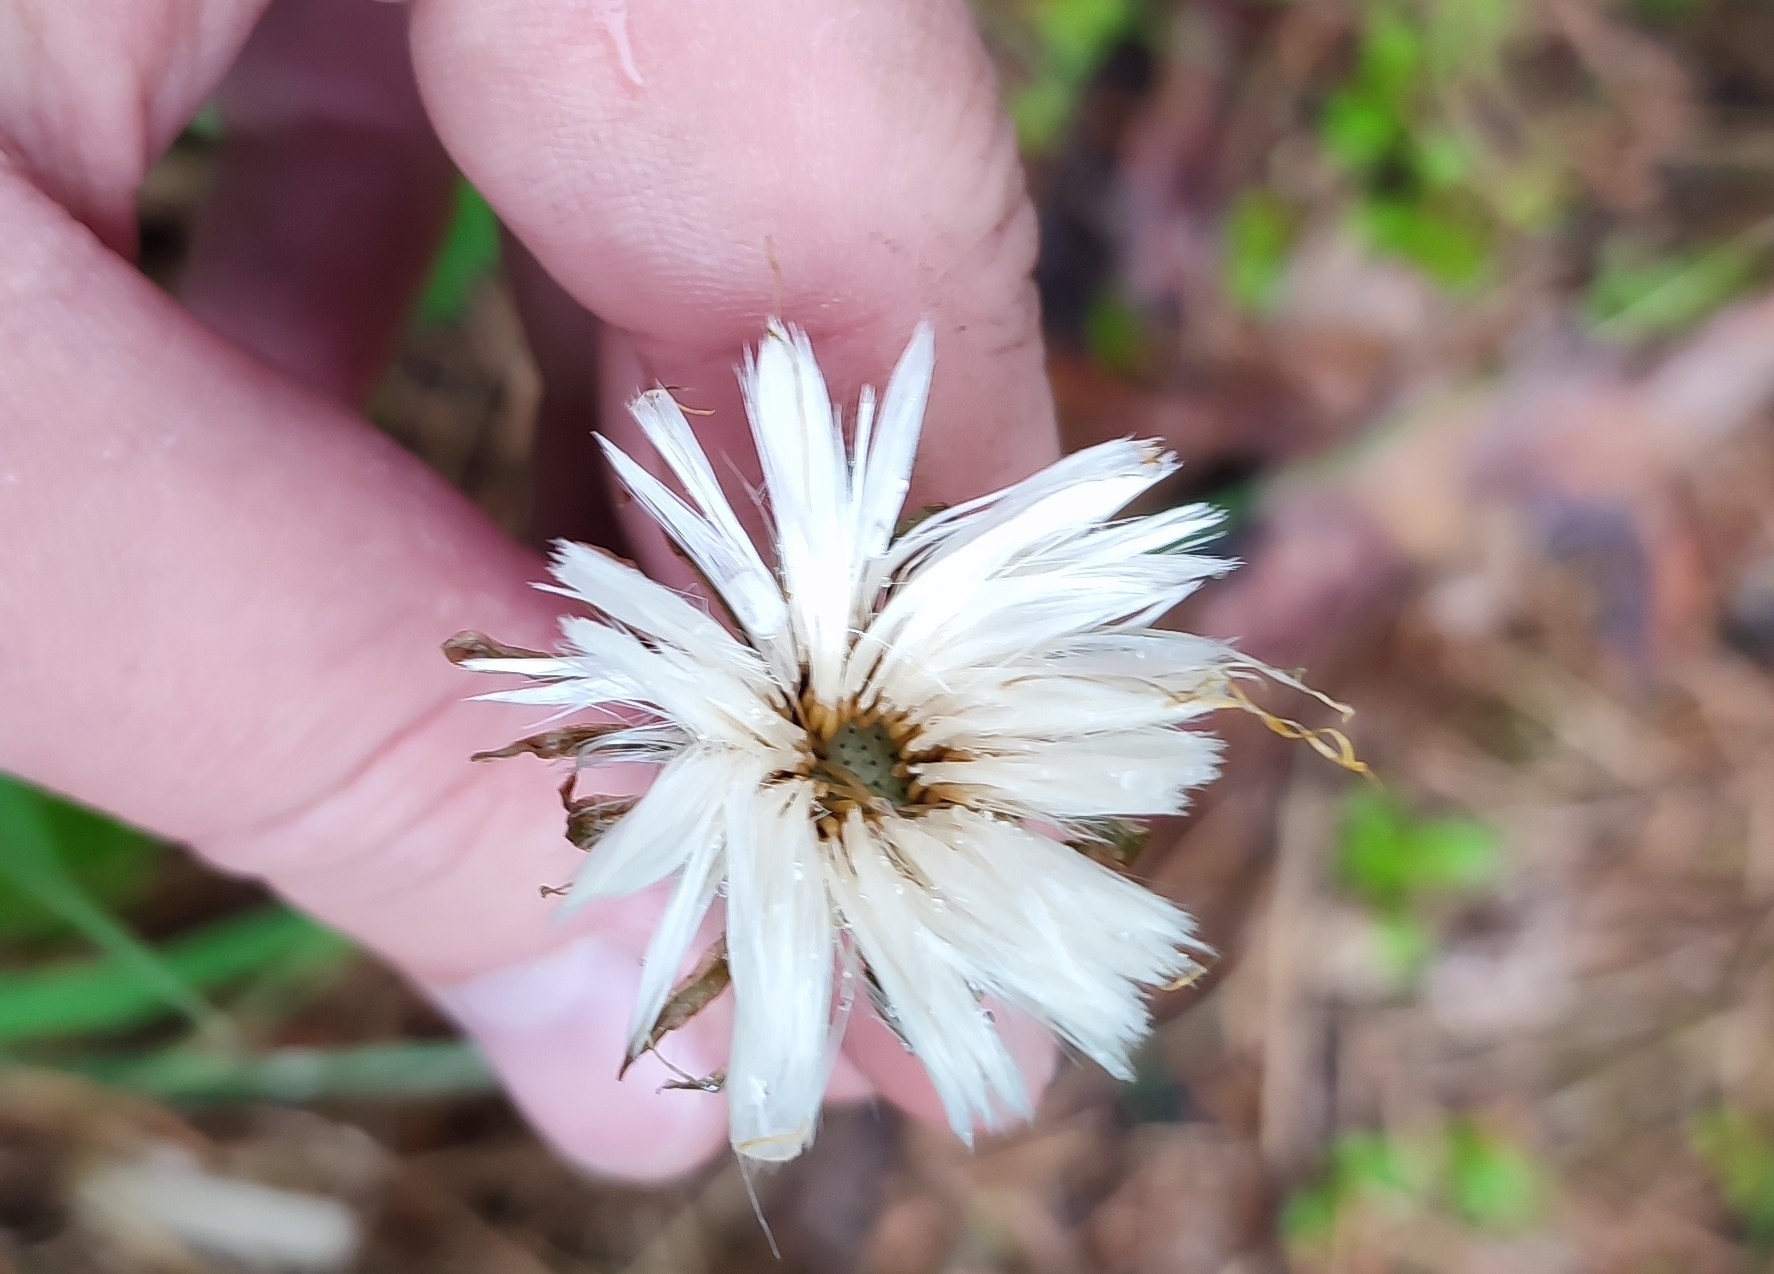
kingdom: Plantae
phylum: Tracheophyta
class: Magnoliopsida
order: Asterales
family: Asteraceae
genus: Tussilago
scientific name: Tussilago farfara
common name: Coltsfoot
